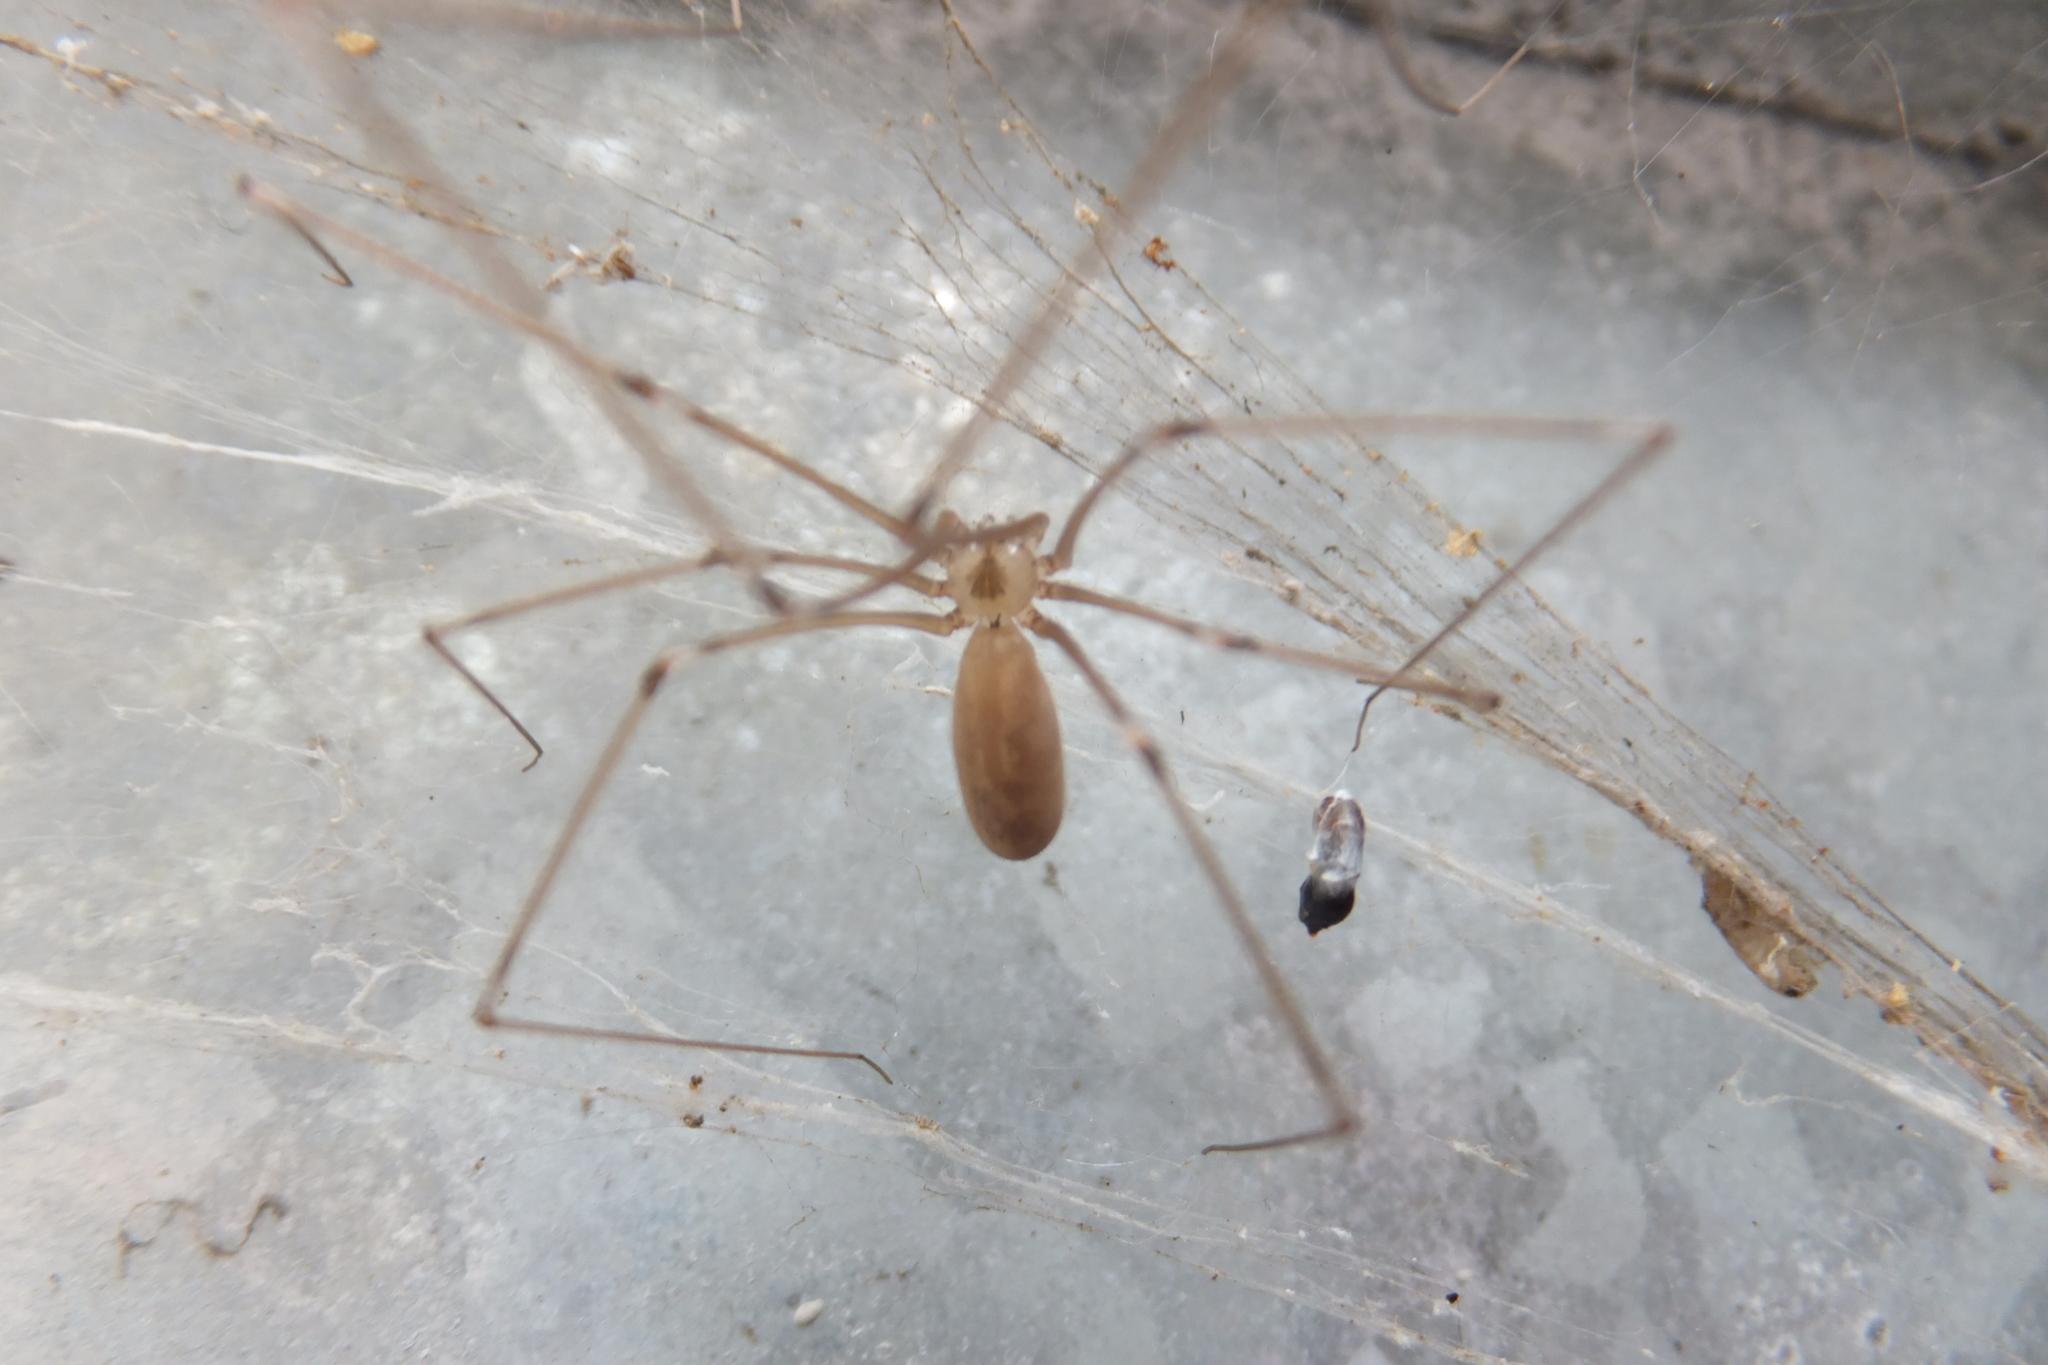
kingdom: Animalia
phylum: Arthropoda
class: Arachnida
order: Araneae
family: Pholcidae
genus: Pholcus
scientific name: Pholcus phalangioides
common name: Longbodied cellar spider
